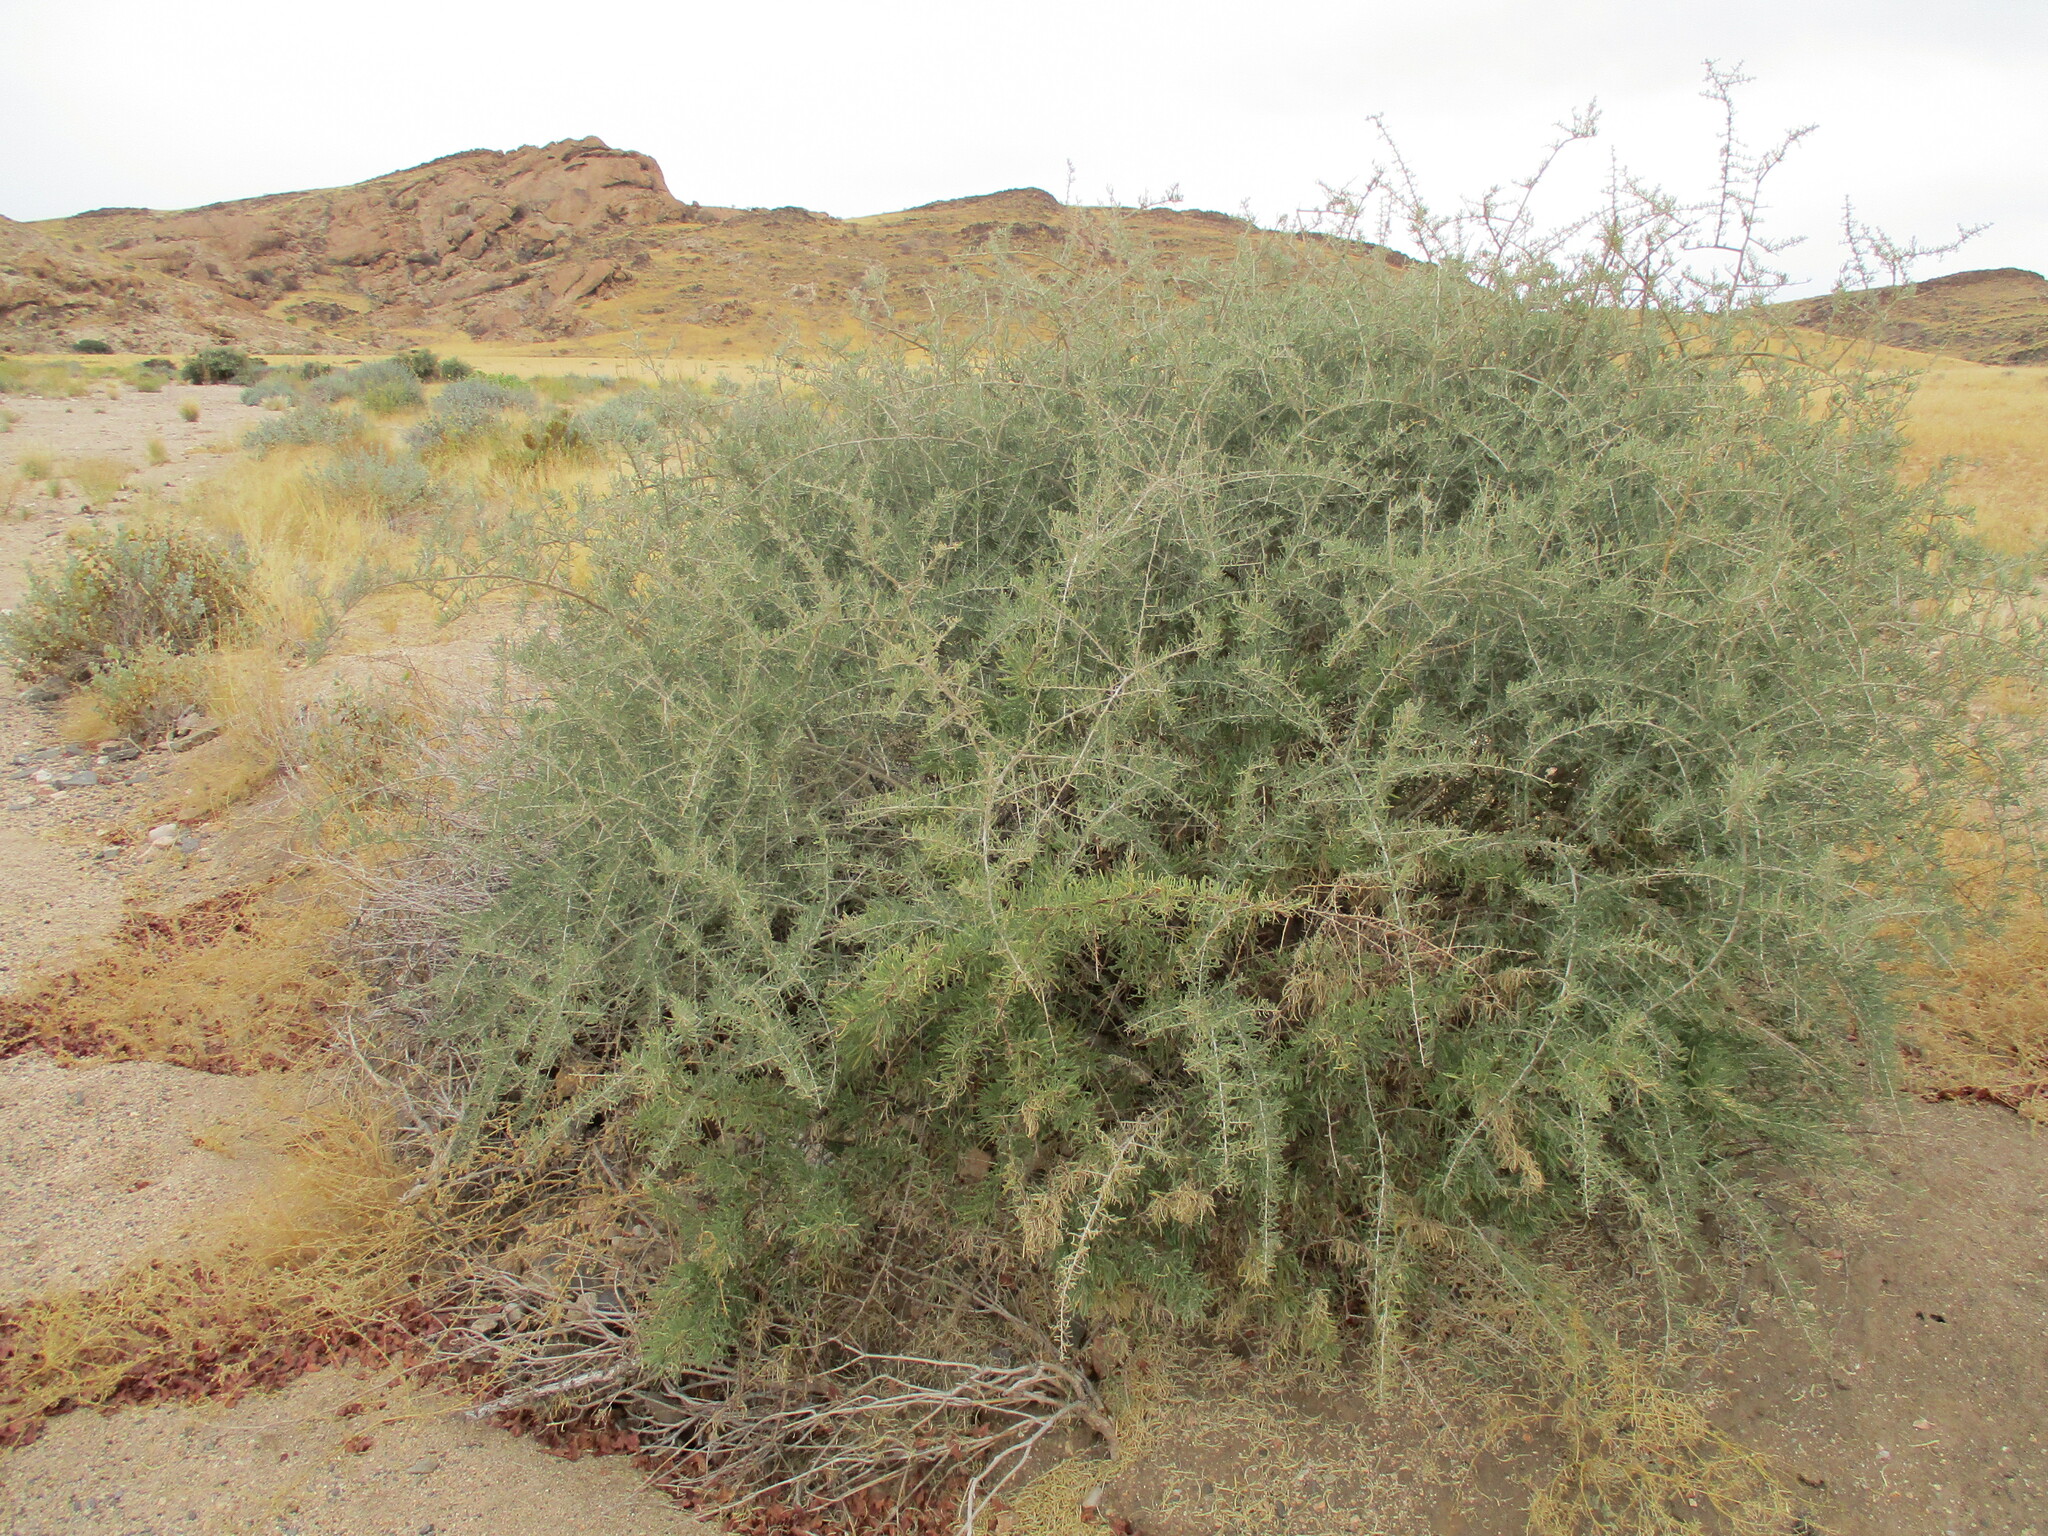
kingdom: Plantae
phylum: Tracheophyta
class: Magnoliopsida
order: Caryophyllales
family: Nyctaginaceae
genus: Phaeoptilum
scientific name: Phaeoptilum spinosum
